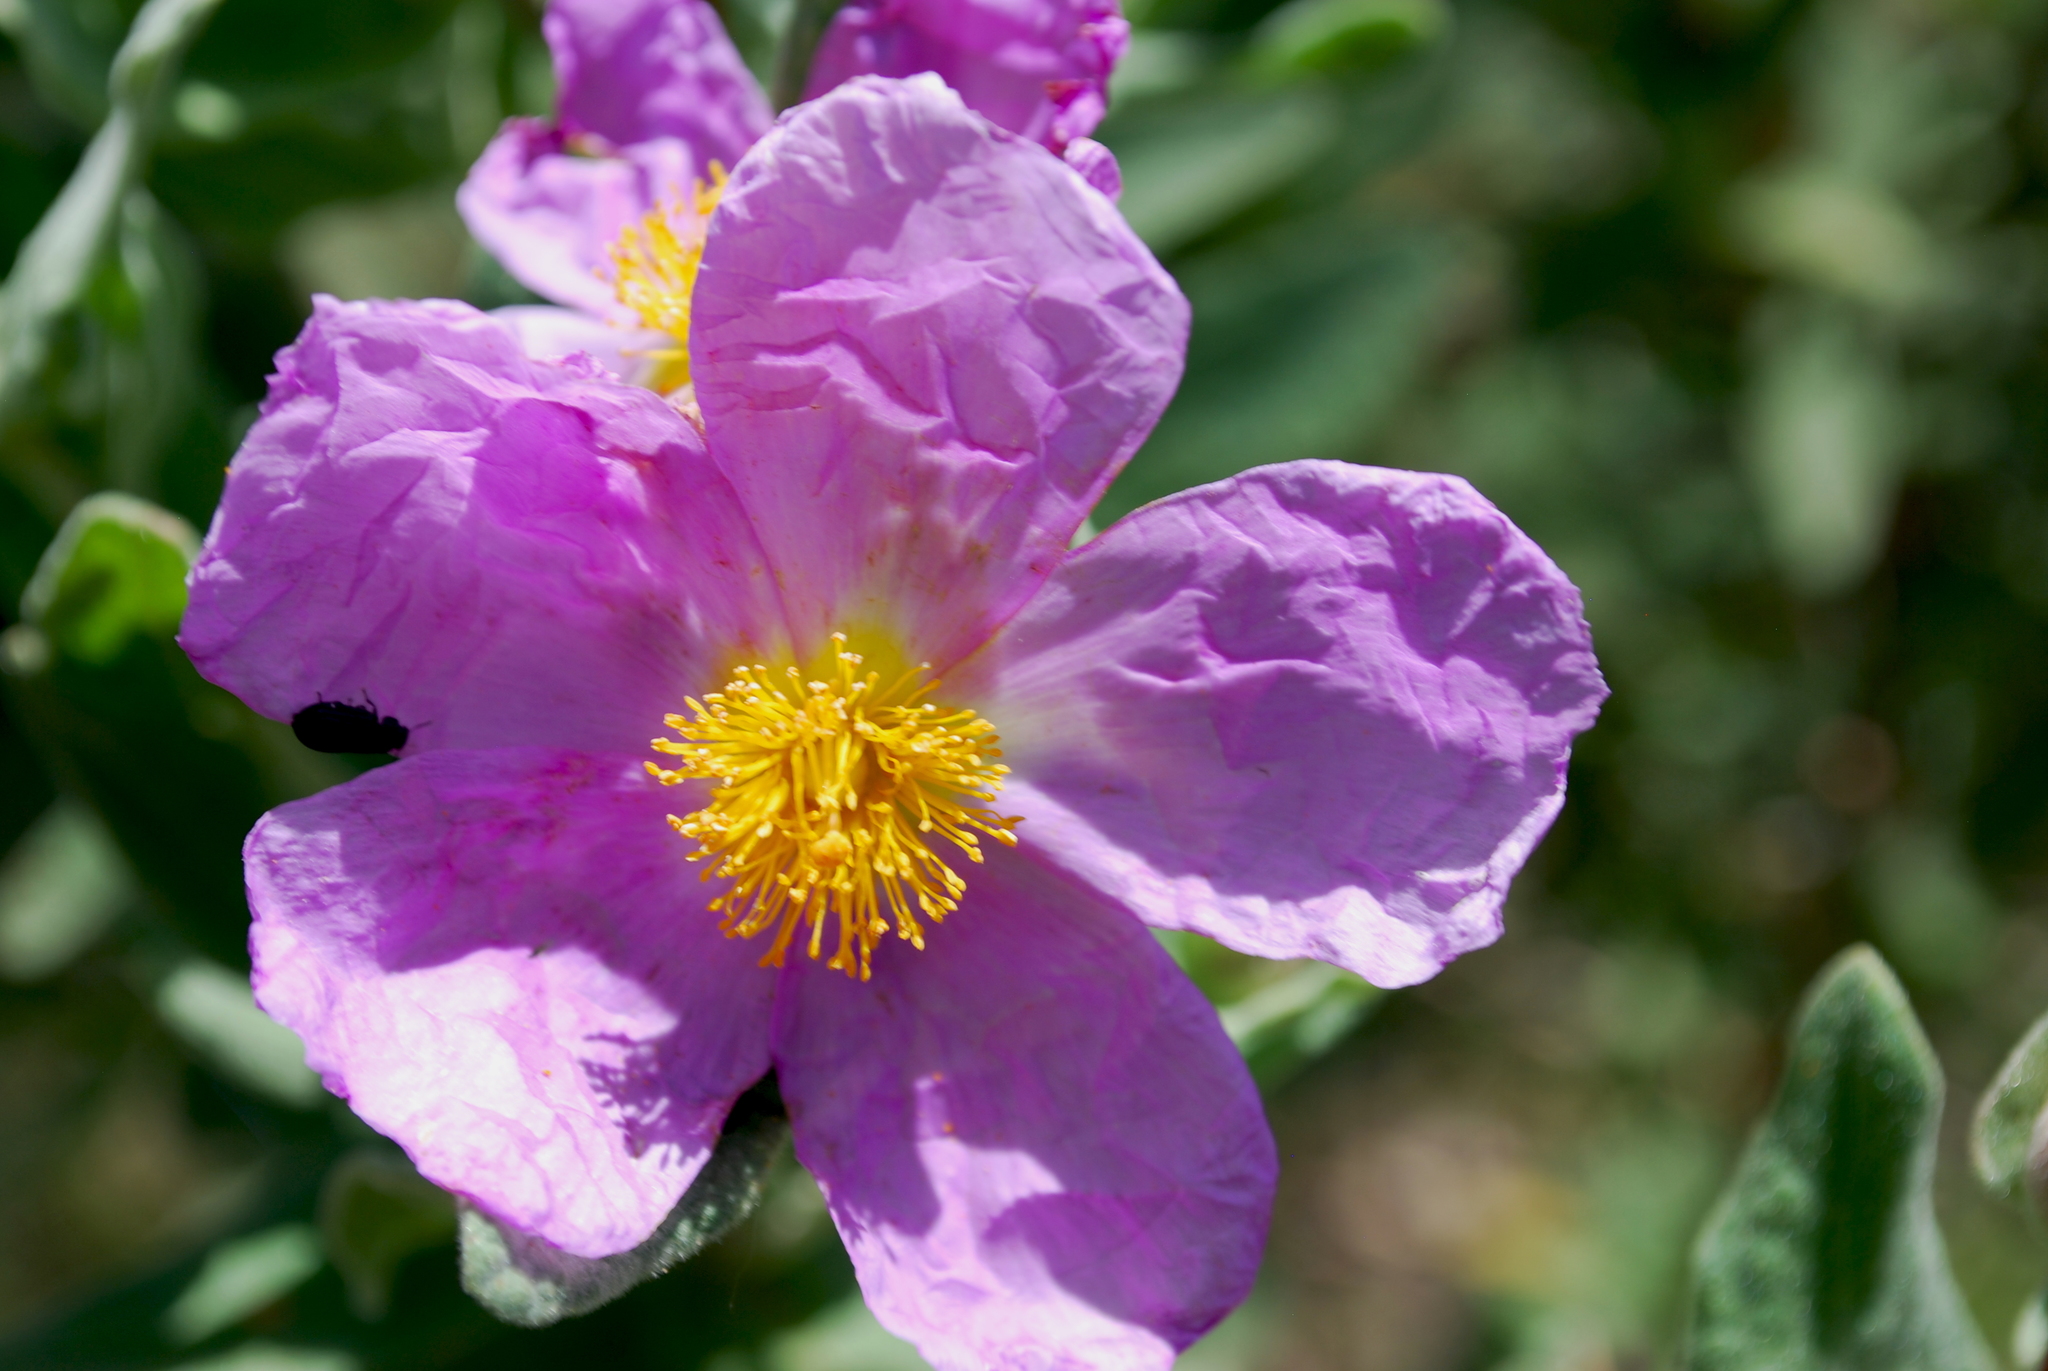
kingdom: Plantae
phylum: Tracheophyta
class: Magnoliopsida
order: Malvales
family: Cistaceae
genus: Cistus
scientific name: Cistus albidus
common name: White-leaf rock-rose
